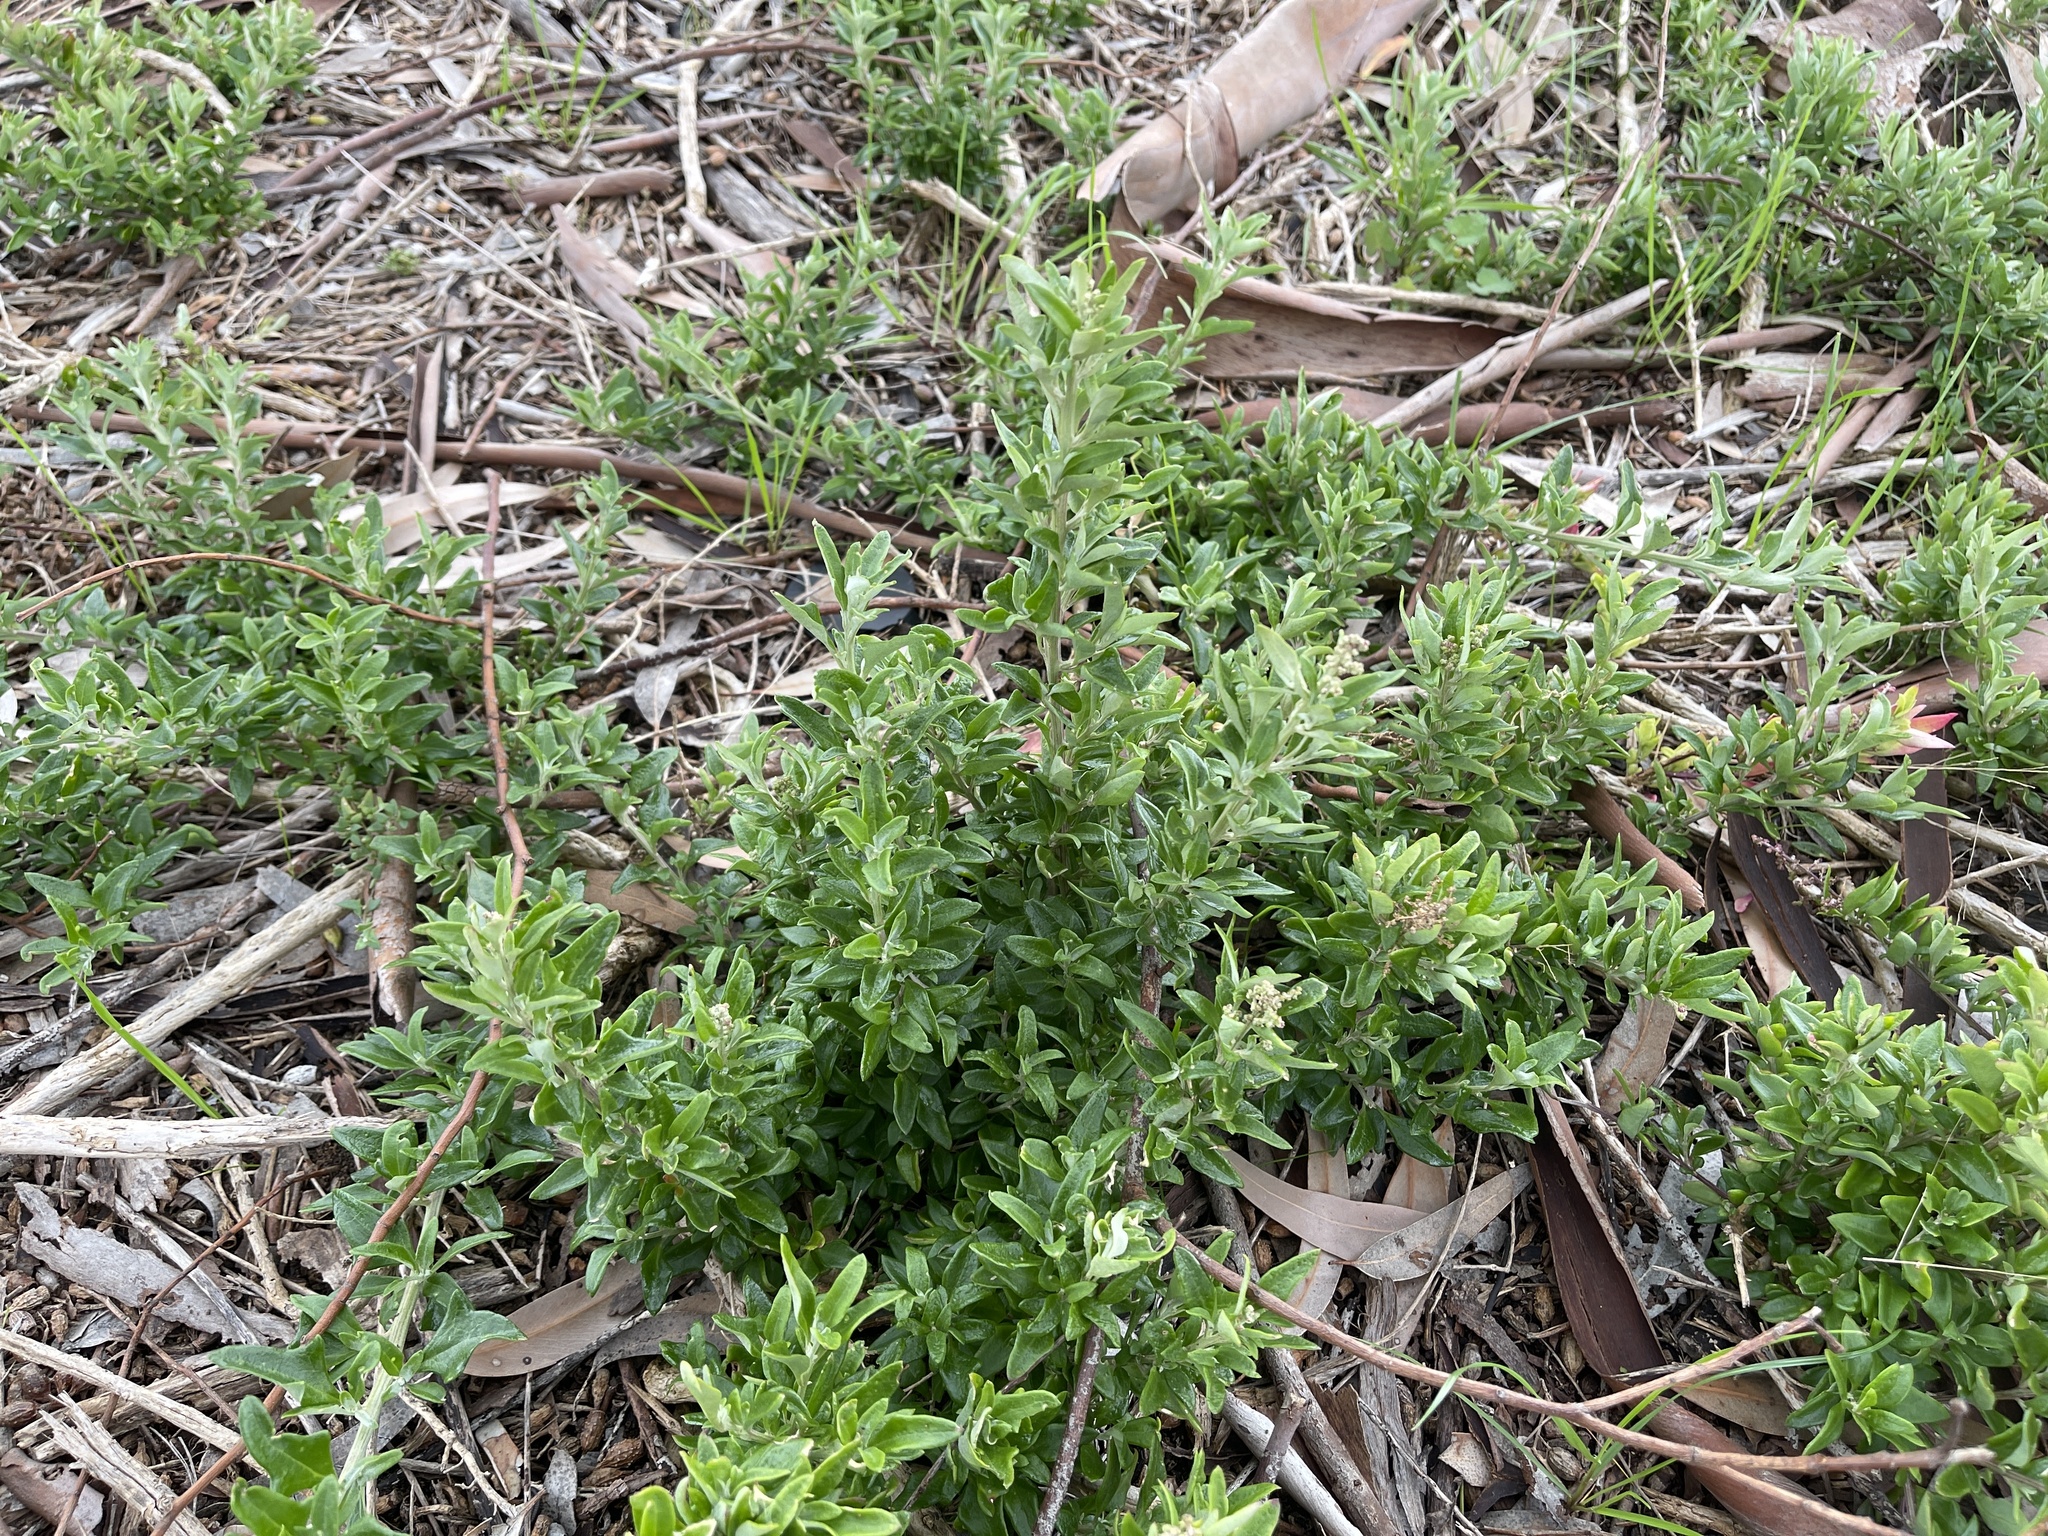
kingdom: Plantae
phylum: Tracheophyta
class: Magnoliopsida
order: Caryophyllales
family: Amaranthaceae
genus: Chenopodium
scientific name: Chenopodium candolleanum
